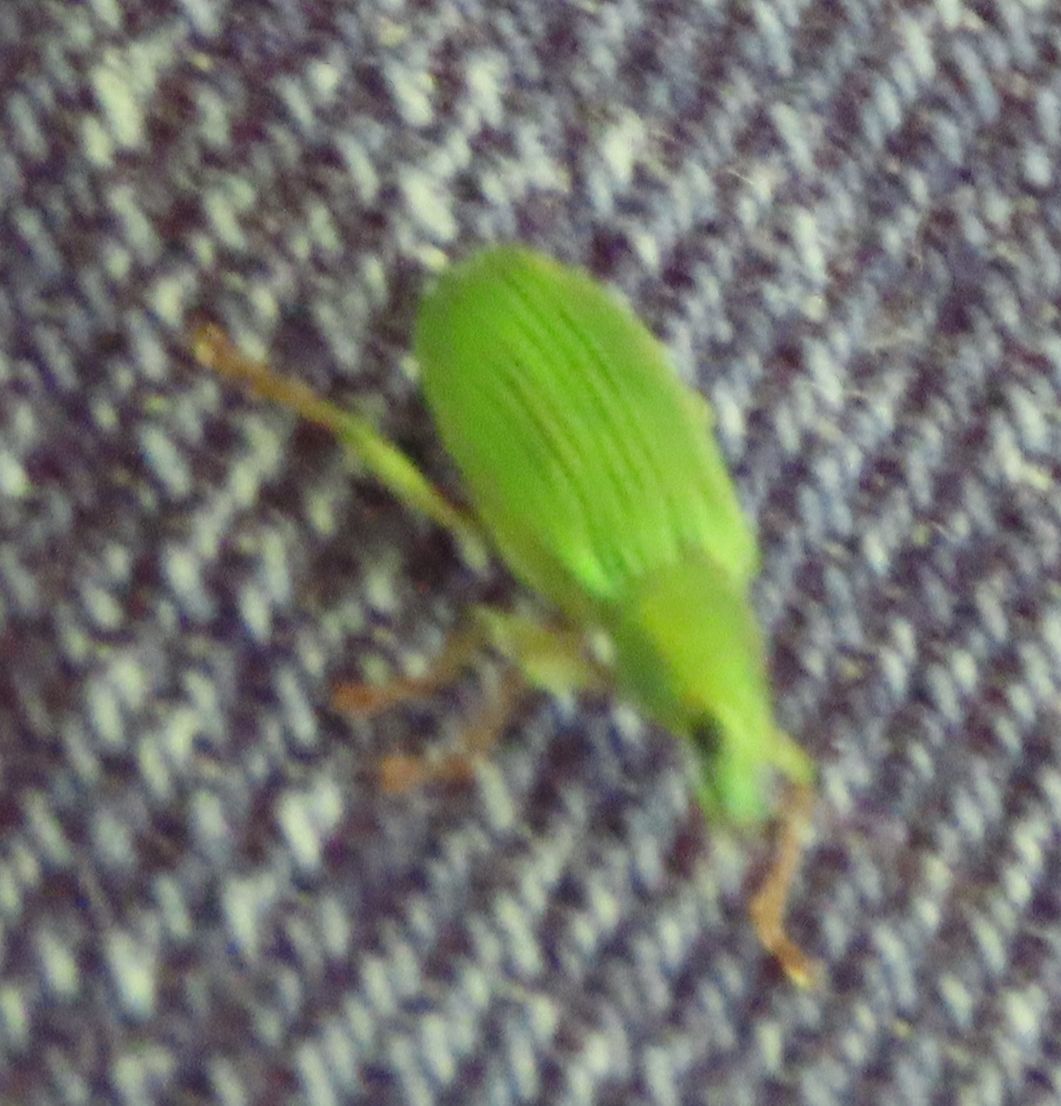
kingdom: Animalia
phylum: Arthropoda
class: Insecta
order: Coleoptera
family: Curculionidae
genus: Polydrusus
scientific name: Polydrusus formosus
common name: Weevil
